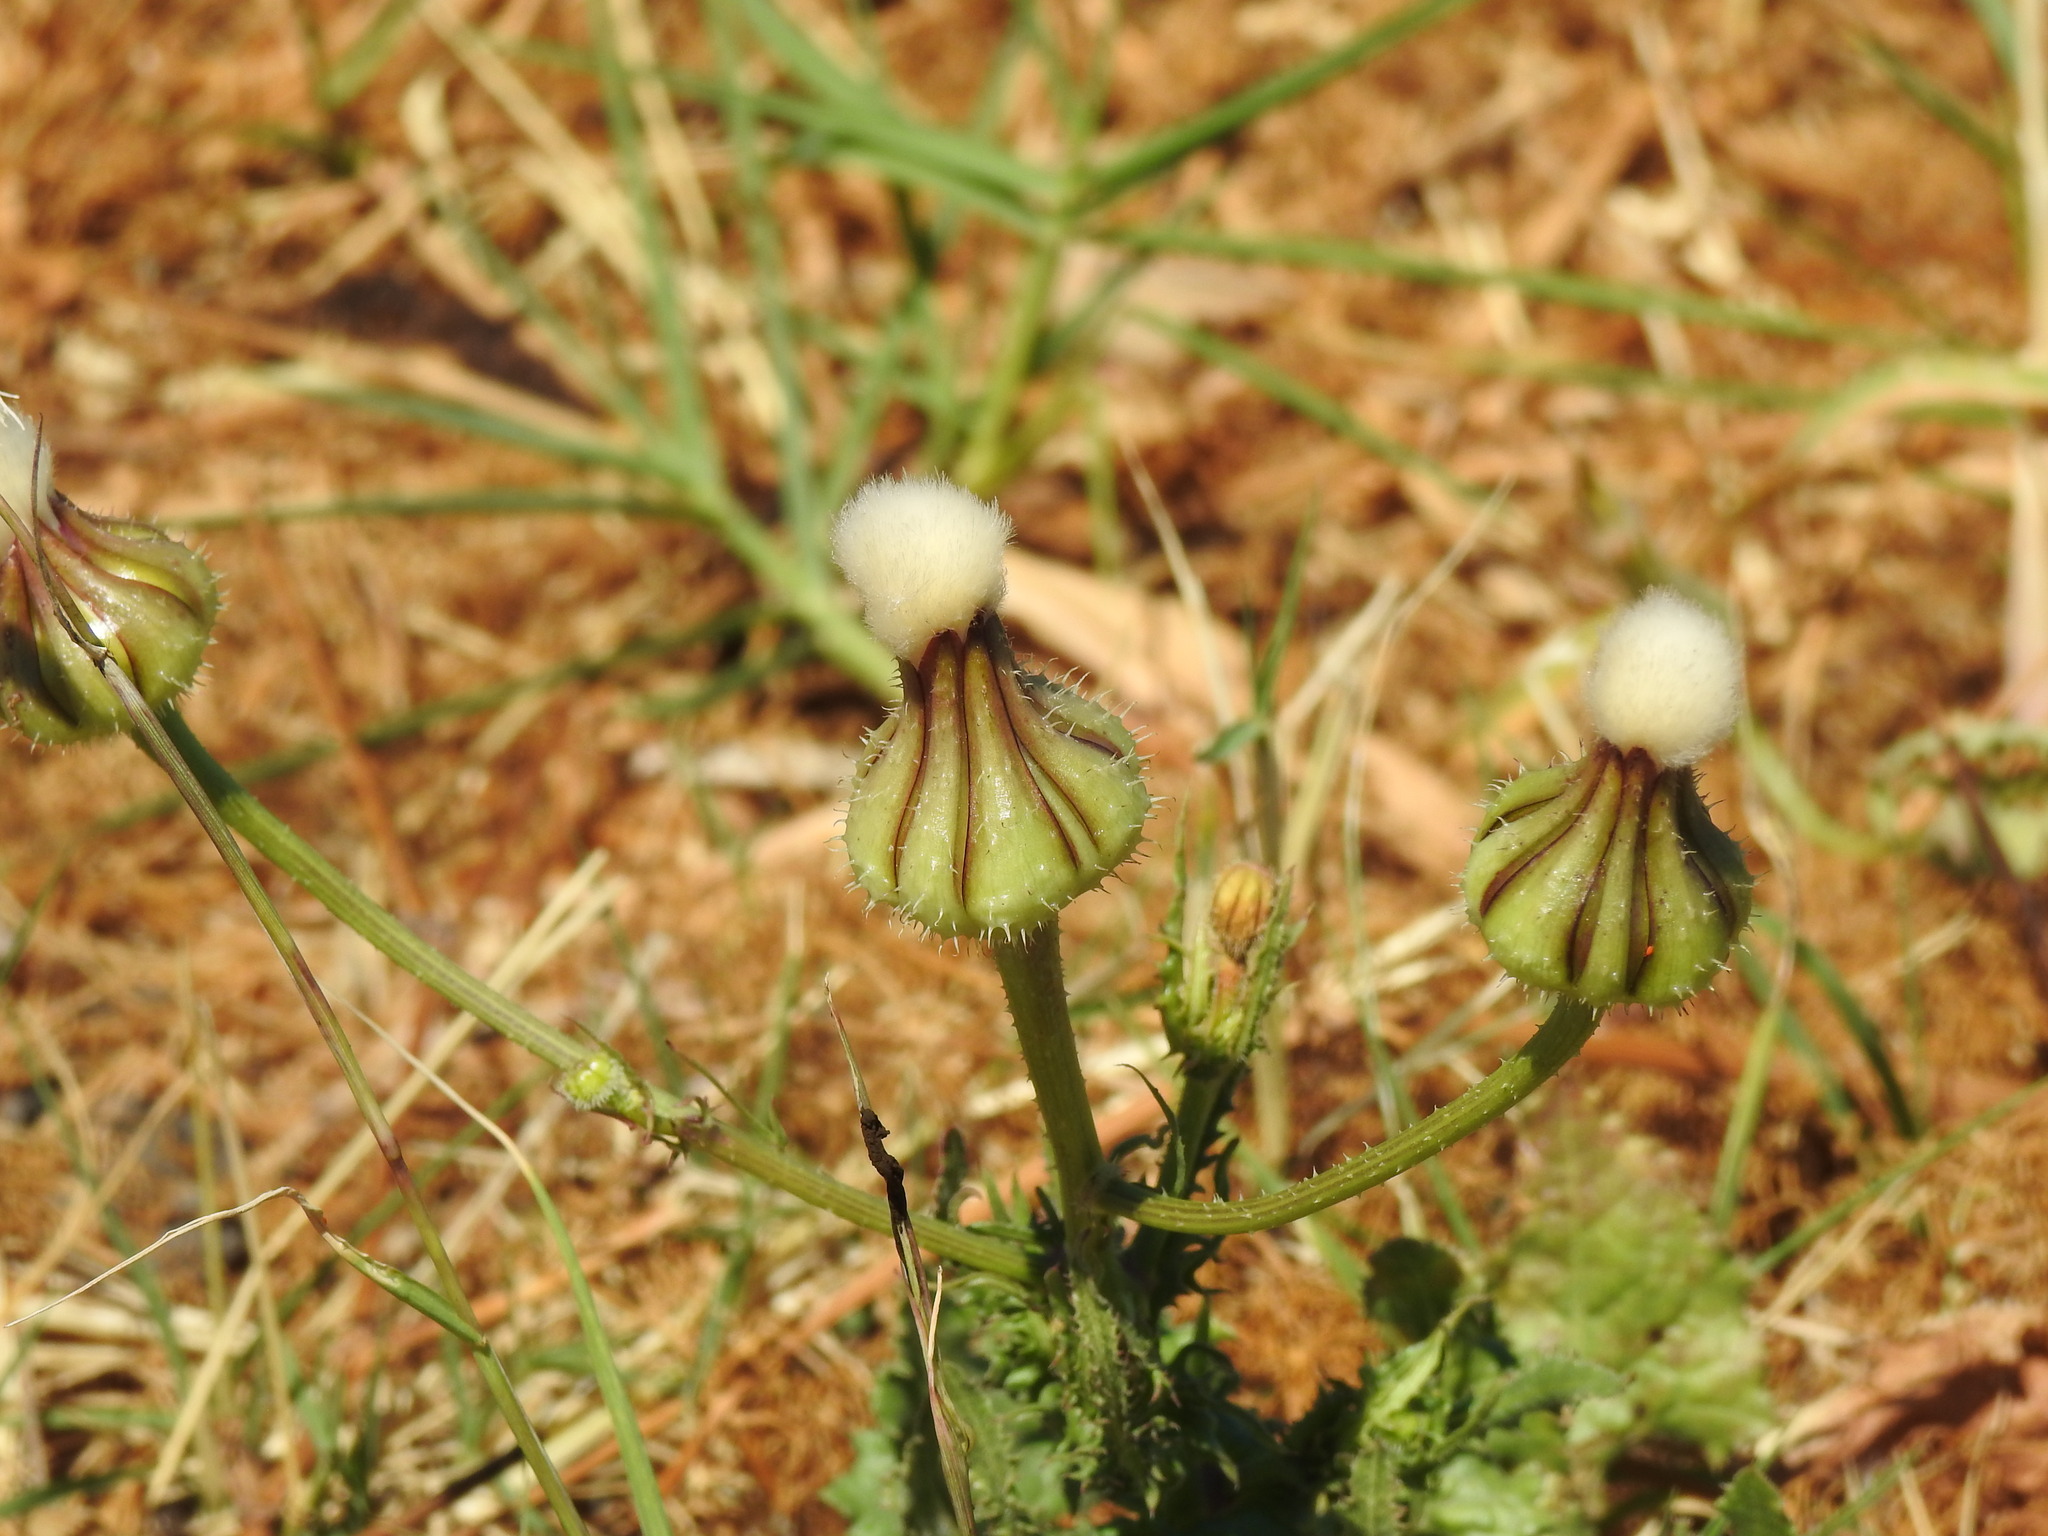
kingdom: Plantae
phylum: Tracheophyta
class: Magnoliopsida
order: Asterales
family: Asteraceae
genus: Urospermum
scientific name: Urospermum picroides
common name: False hawkbit
